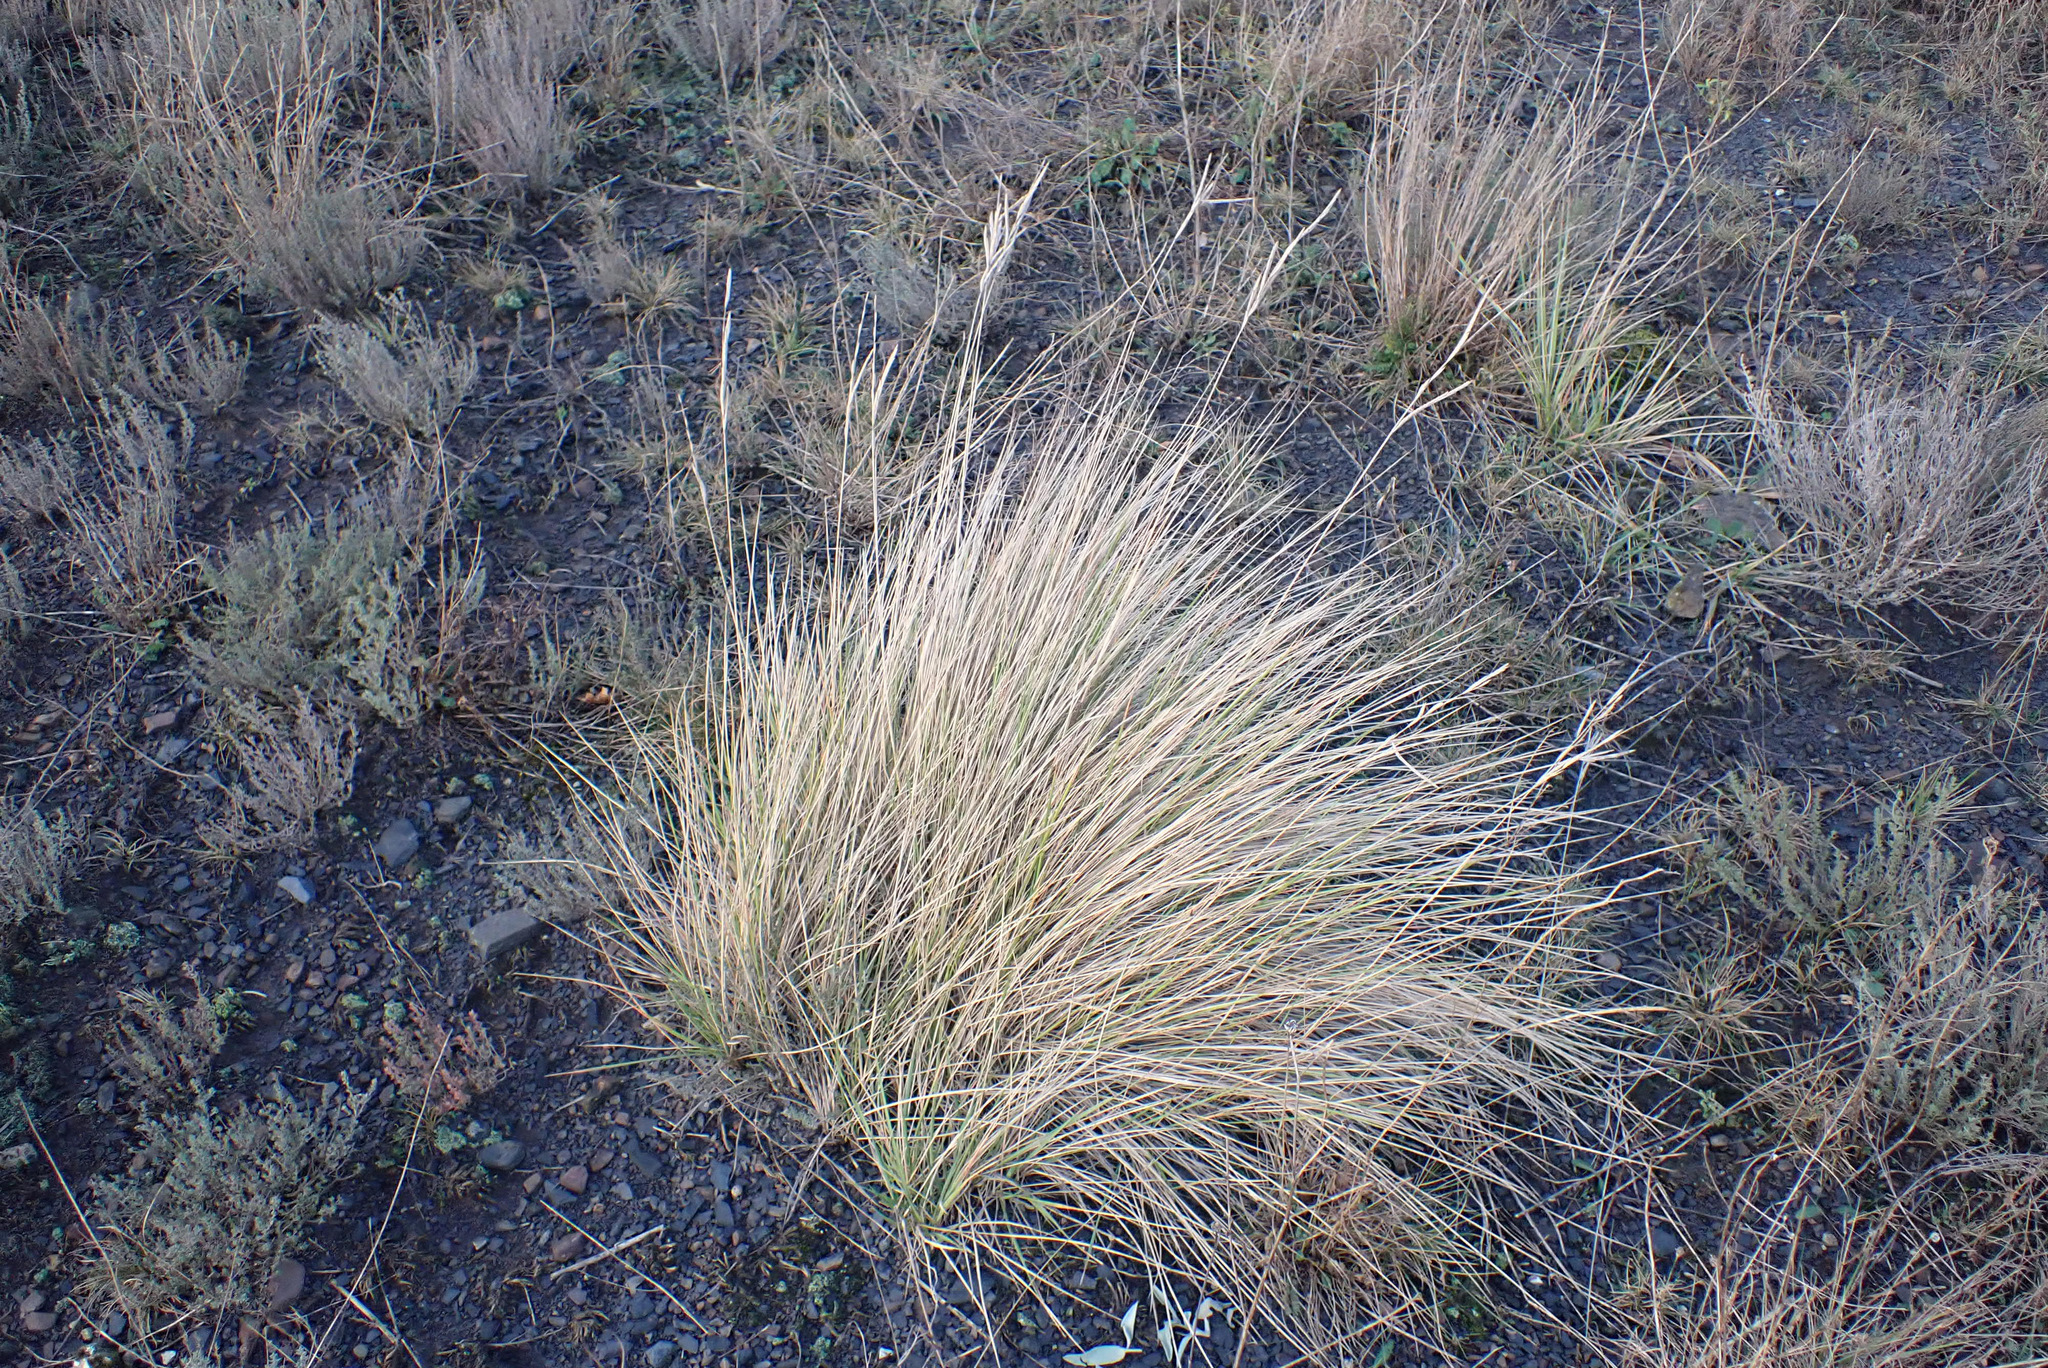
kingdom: Plantae
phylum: Tracheophyta
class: Liliopsida
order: Poales
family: Poaceae
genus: Brachypodium
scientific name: Brachypodium phoenicoides
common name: Thinleaf false brome
